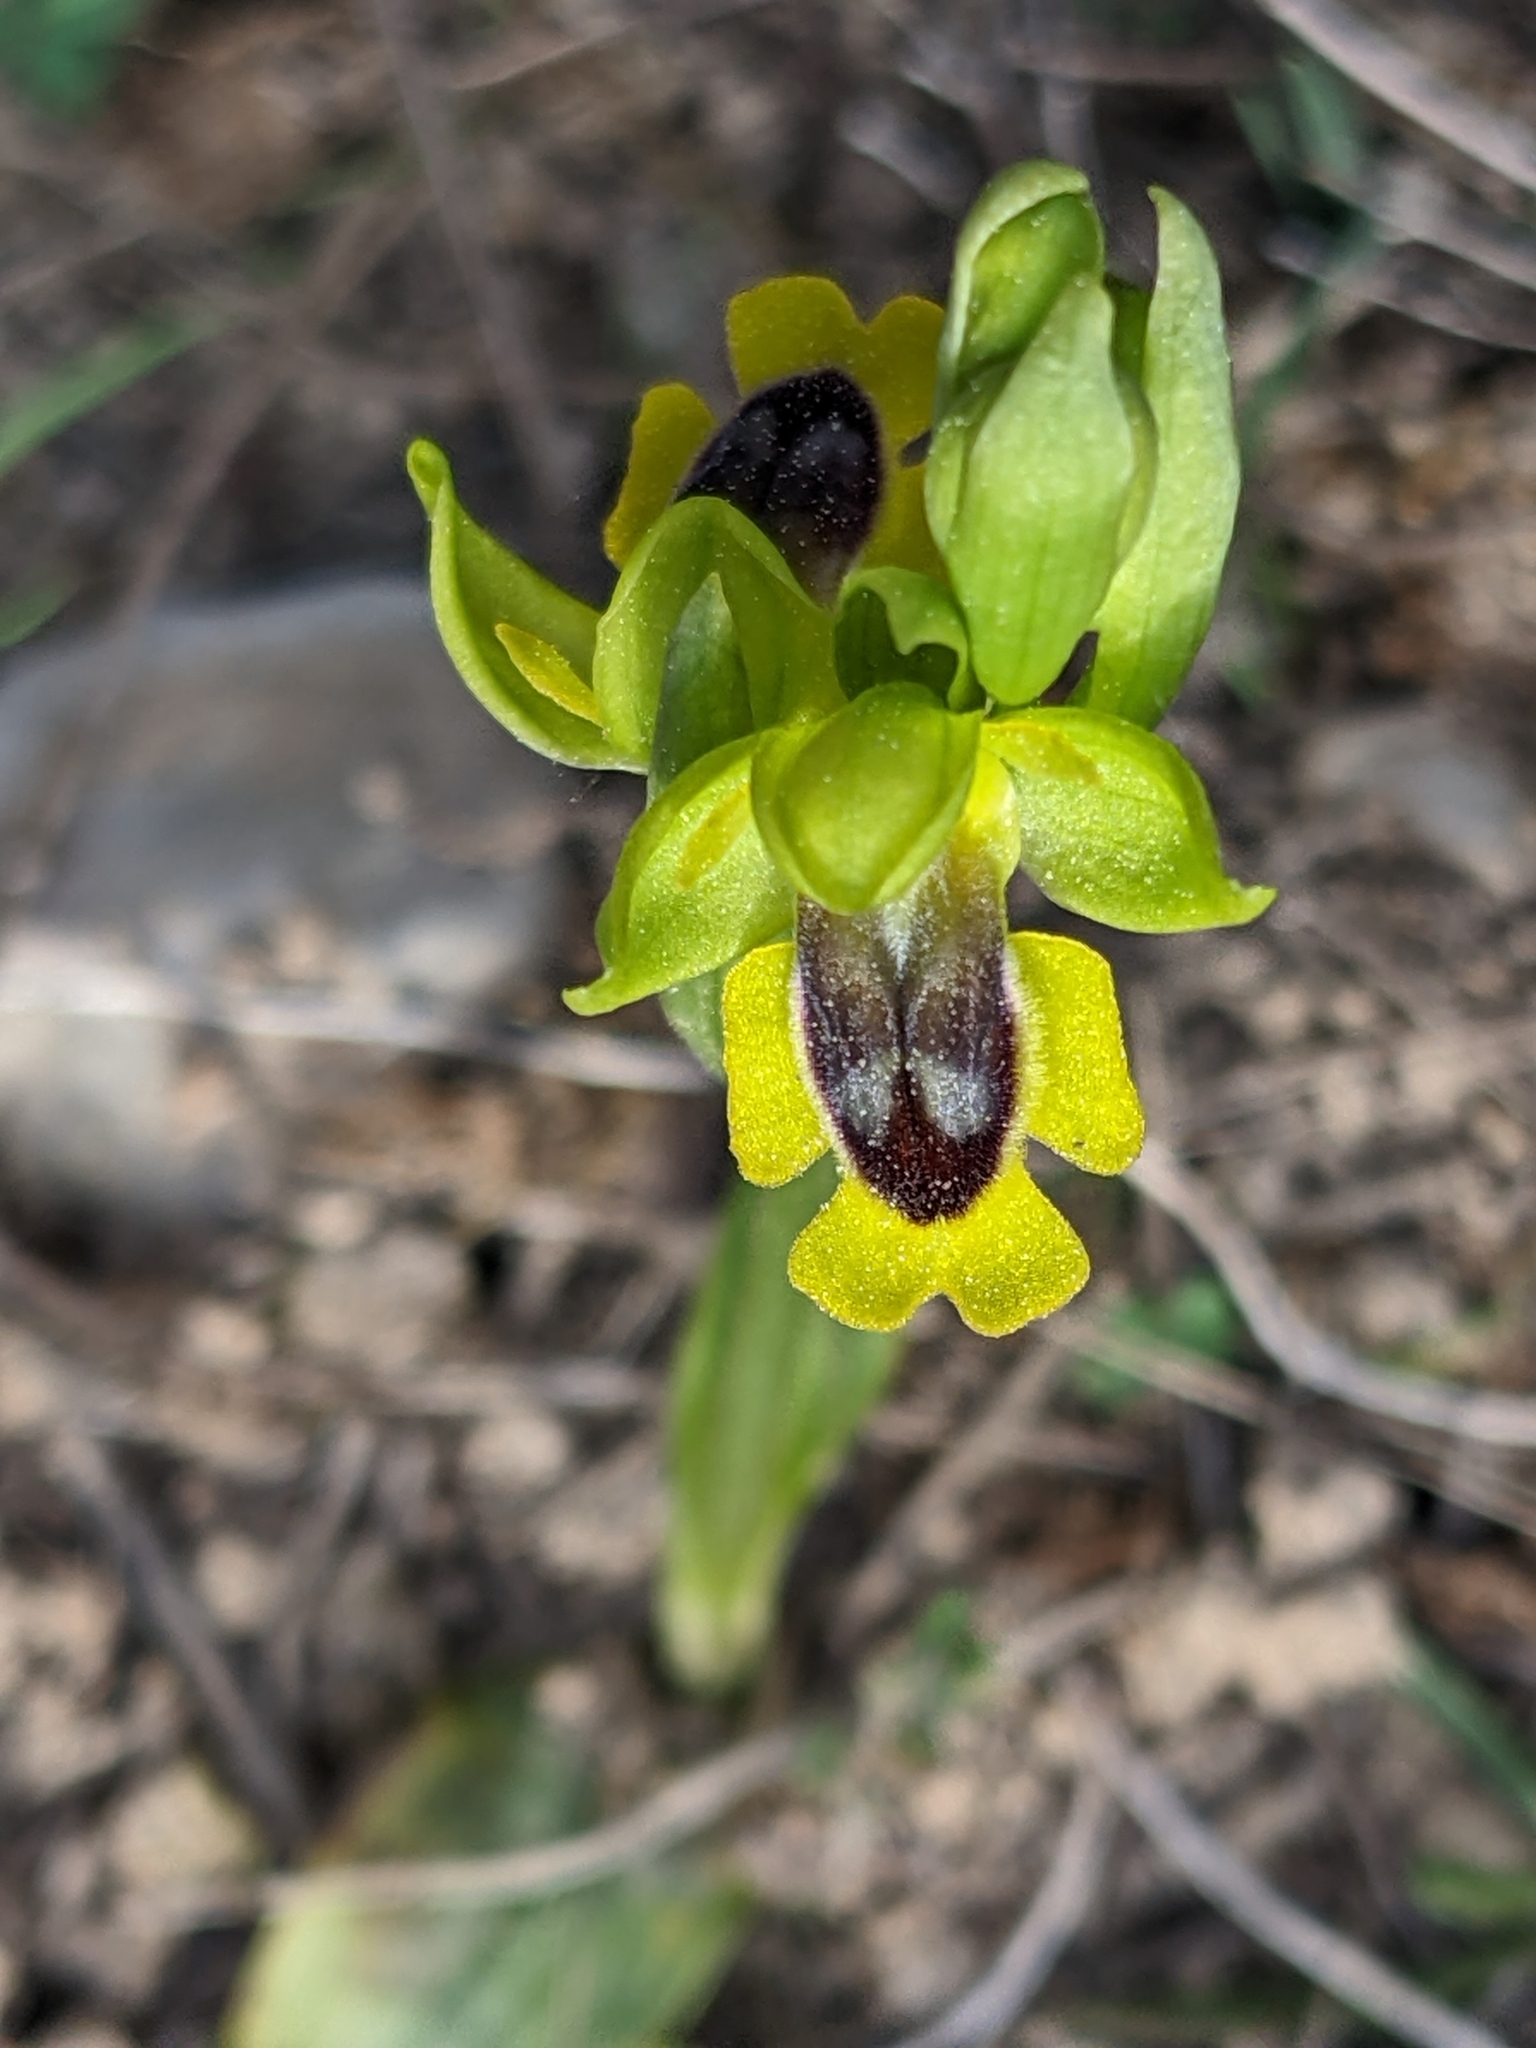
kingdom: Plantae
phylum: Tracheophyta
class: Liliopsida
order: Asparagales
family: Orchidaceae
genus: Ophrys
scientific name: Ophrys lutea
